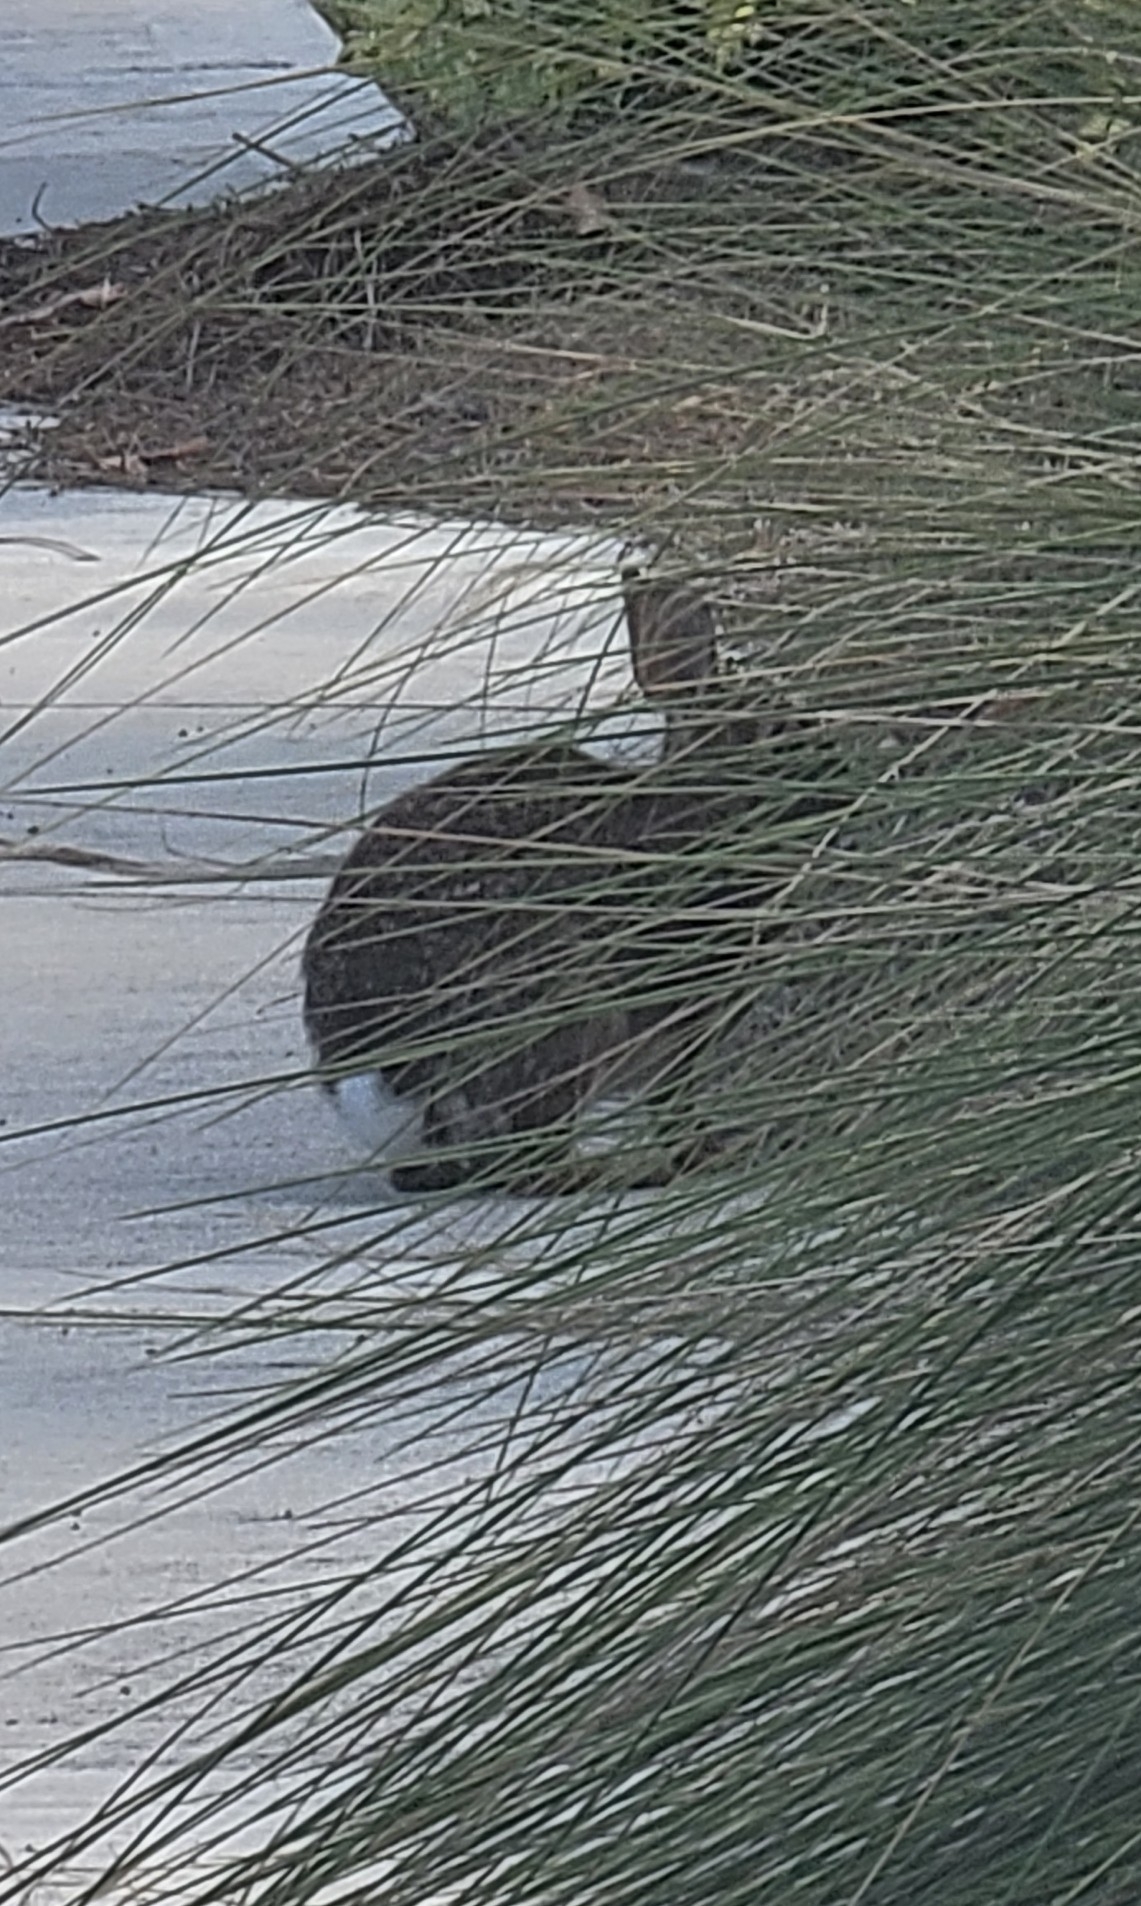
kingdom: Animalia
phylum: Chordata
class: Mammalia
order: Lagomorpha
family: Leporidae
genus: Sylvilagus
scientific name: Sylvilagus floridanus
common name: Eastern cottontail
